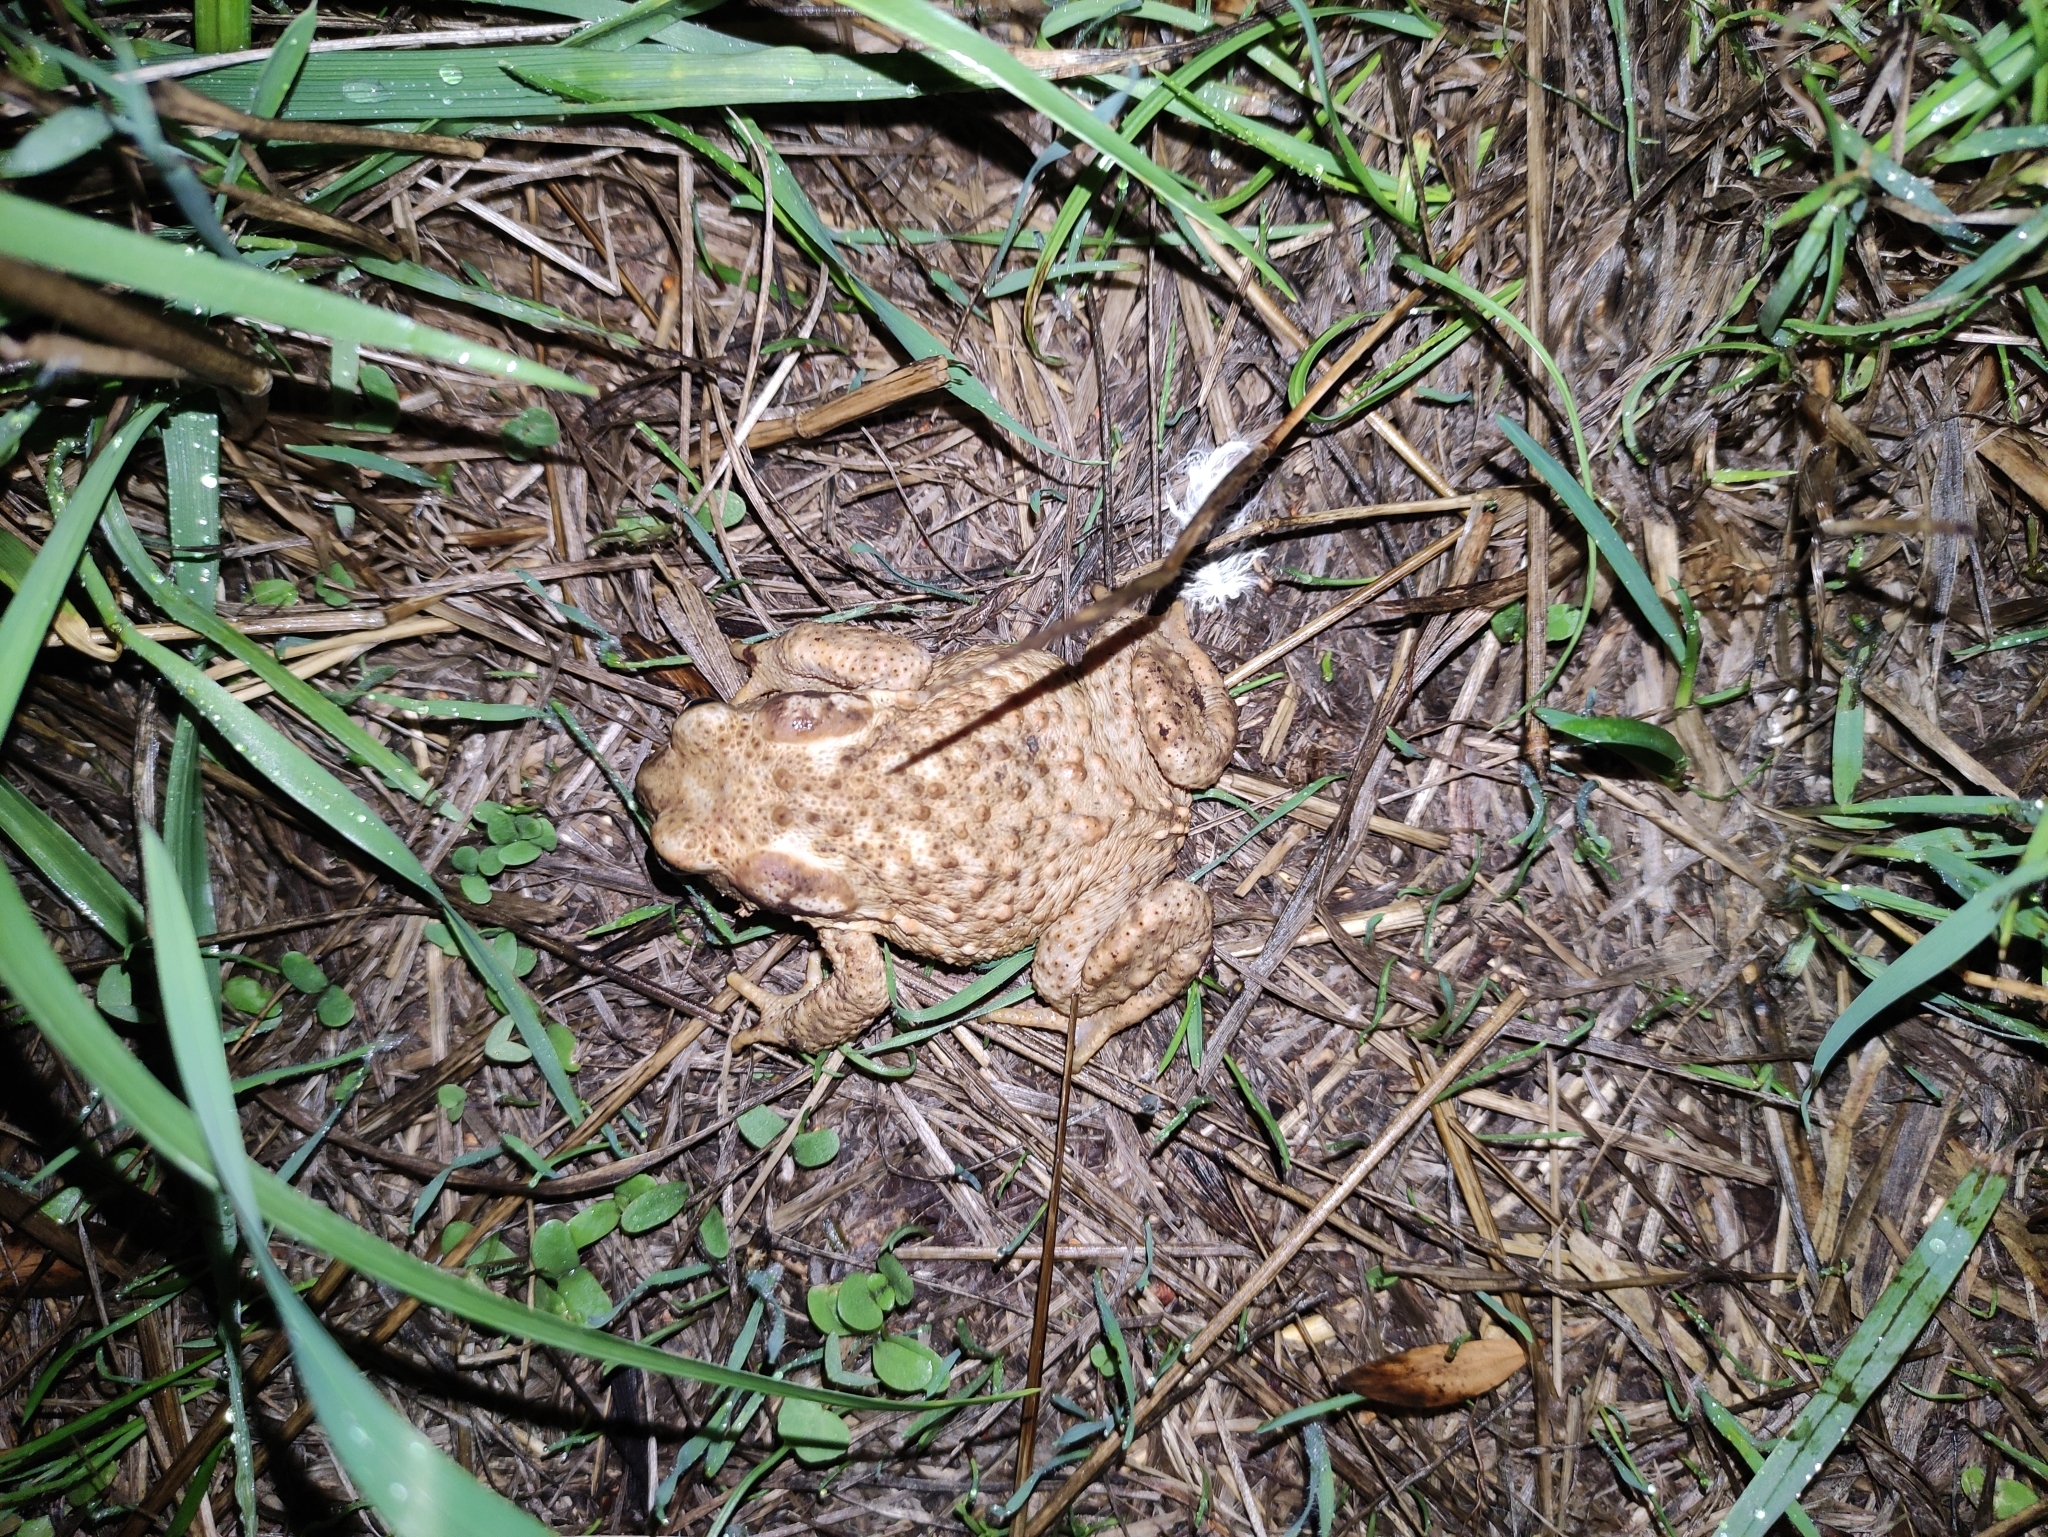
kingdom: Animalia
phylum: Chordata
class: Amphibia
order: Anura
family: Bufonidae
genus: Bufo
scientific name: Bufo bufo
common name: Common toad
